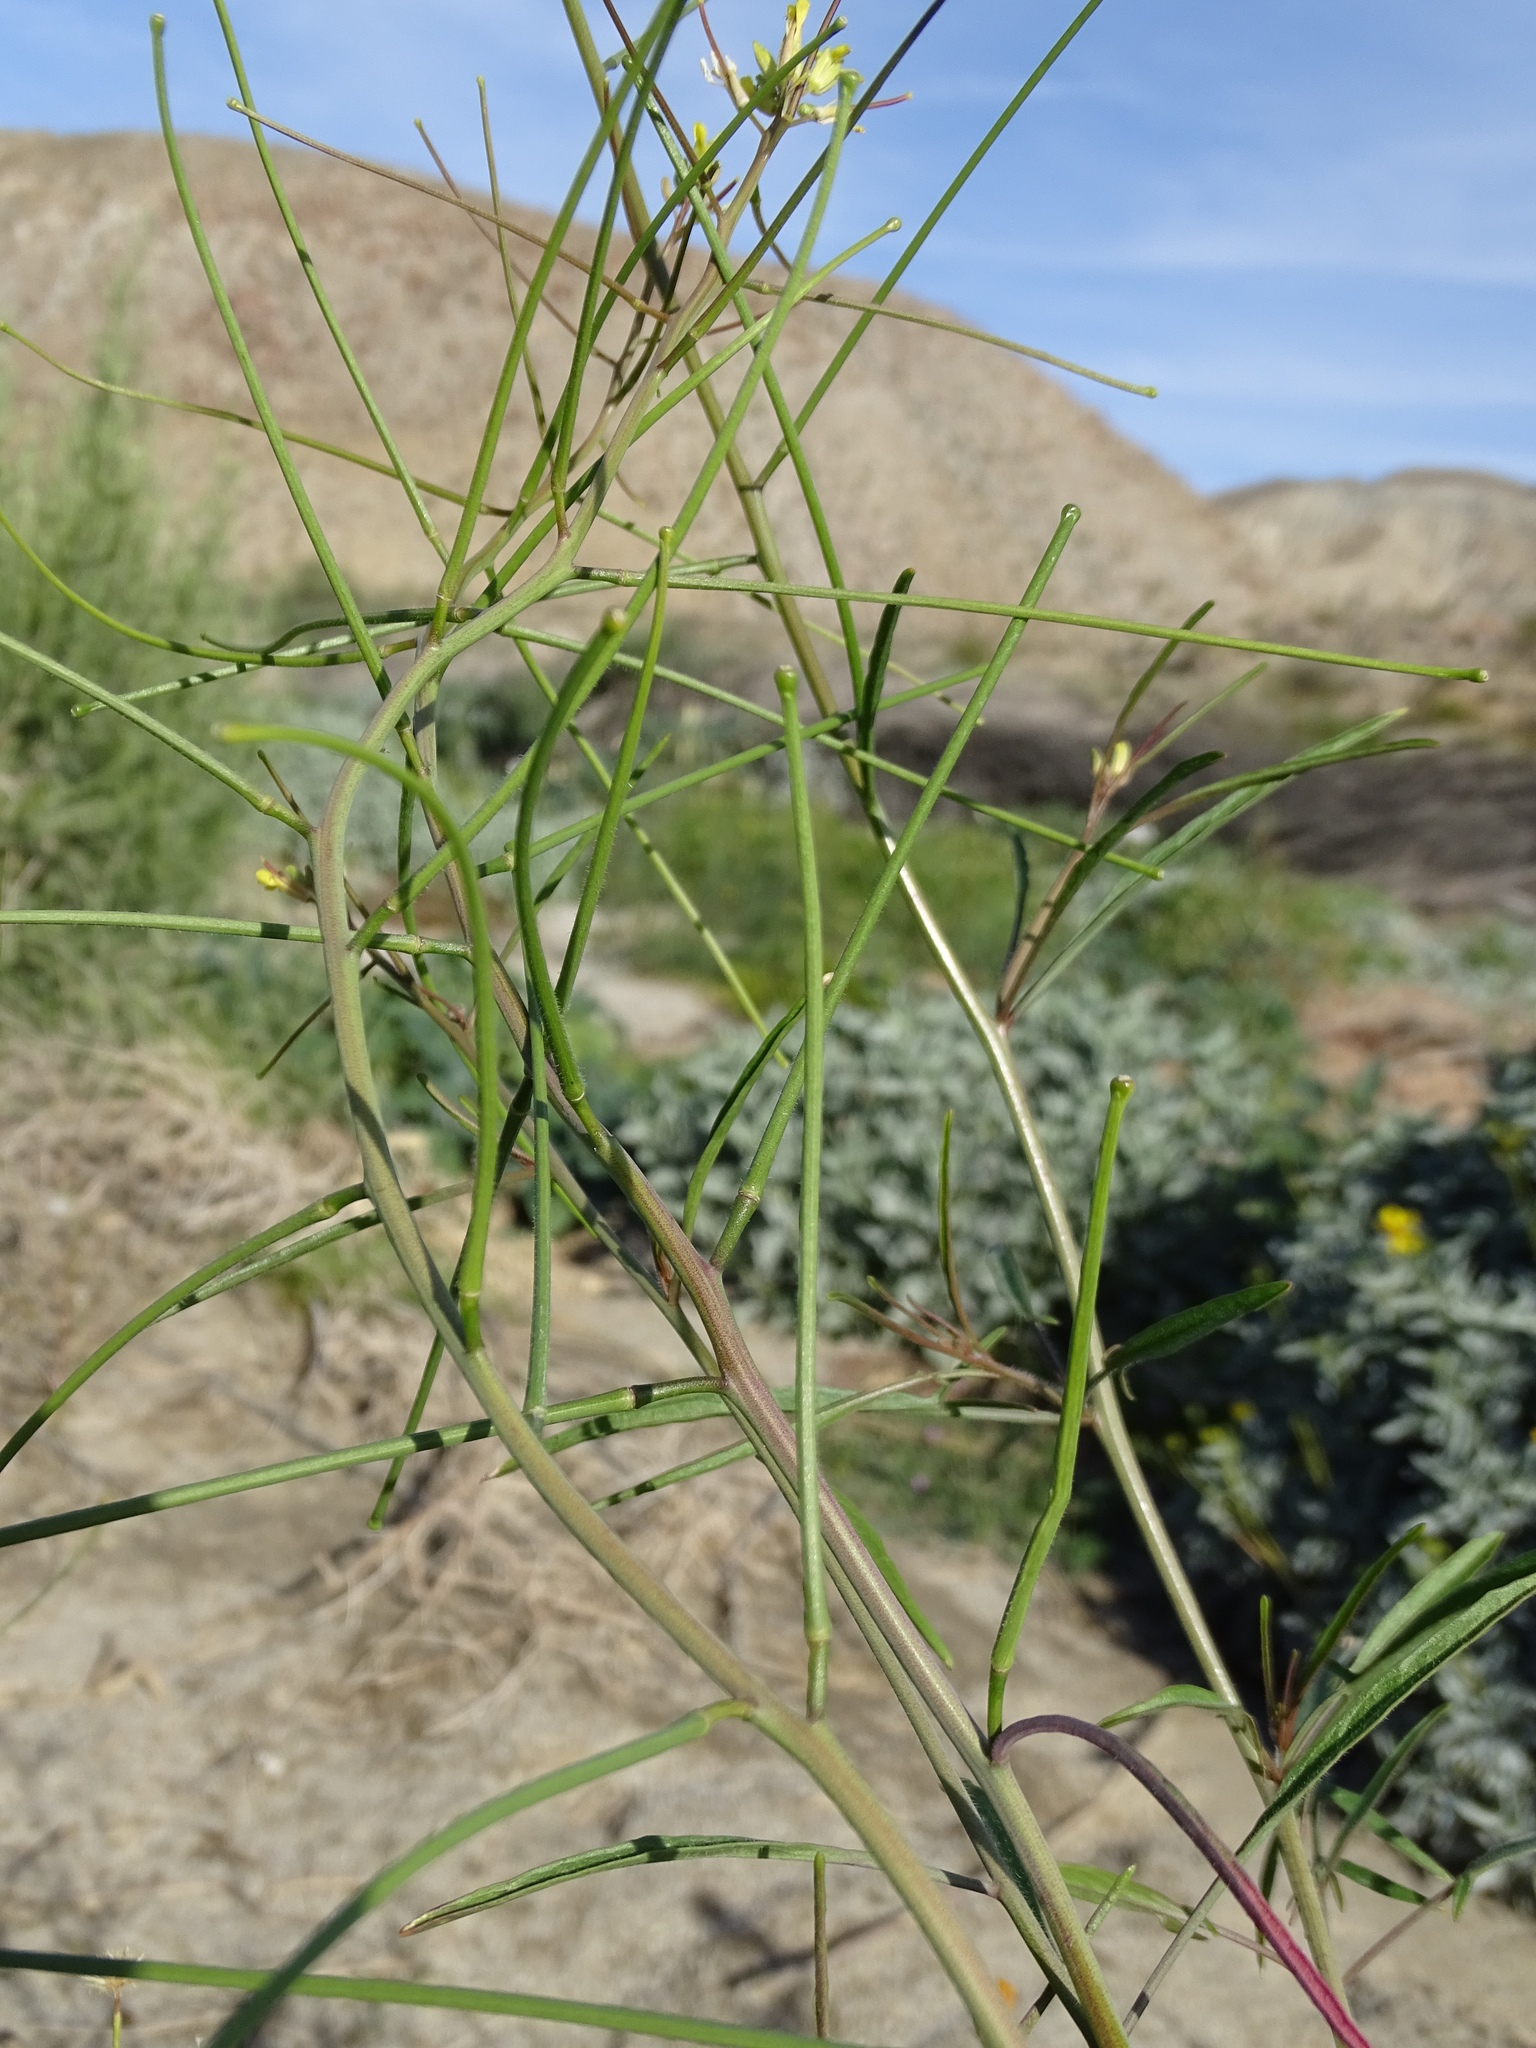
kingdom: Plantae
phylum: Tracheophyta
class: Magnoliopsida
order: Brassicales
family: Brassicaceae
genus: Sisymbrium
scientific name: Sisymbrium orientale
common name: Eastern rocket
